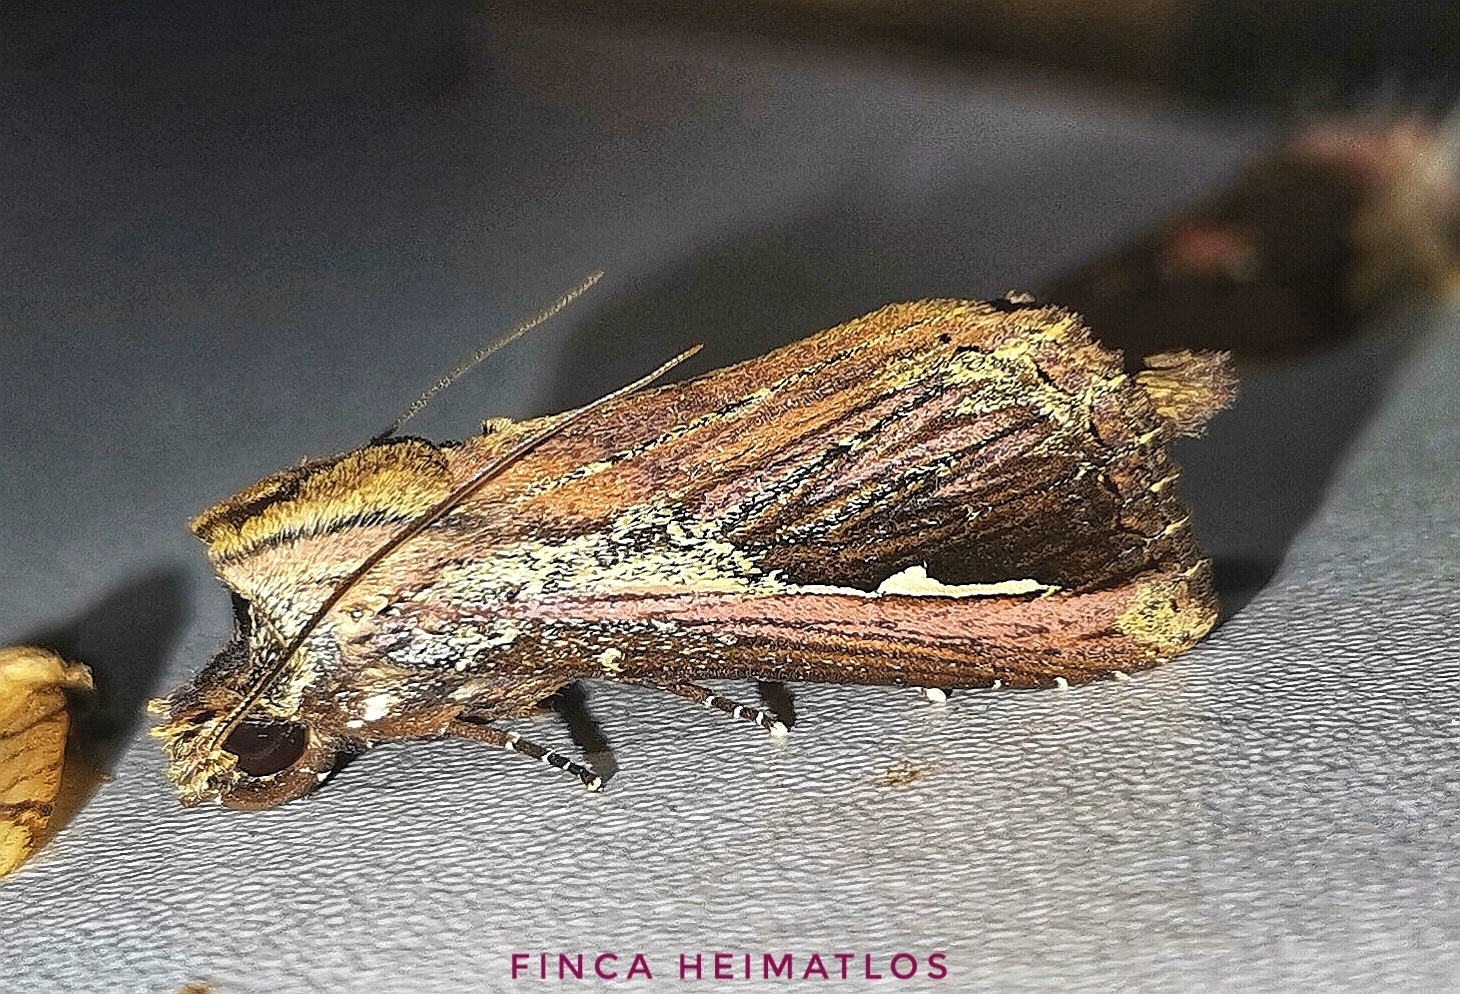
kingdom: Animalia
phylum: Arthropoda
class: Insecta
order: Lepidoptera
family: Notodontidae
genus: Gopha
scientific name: Gopha
